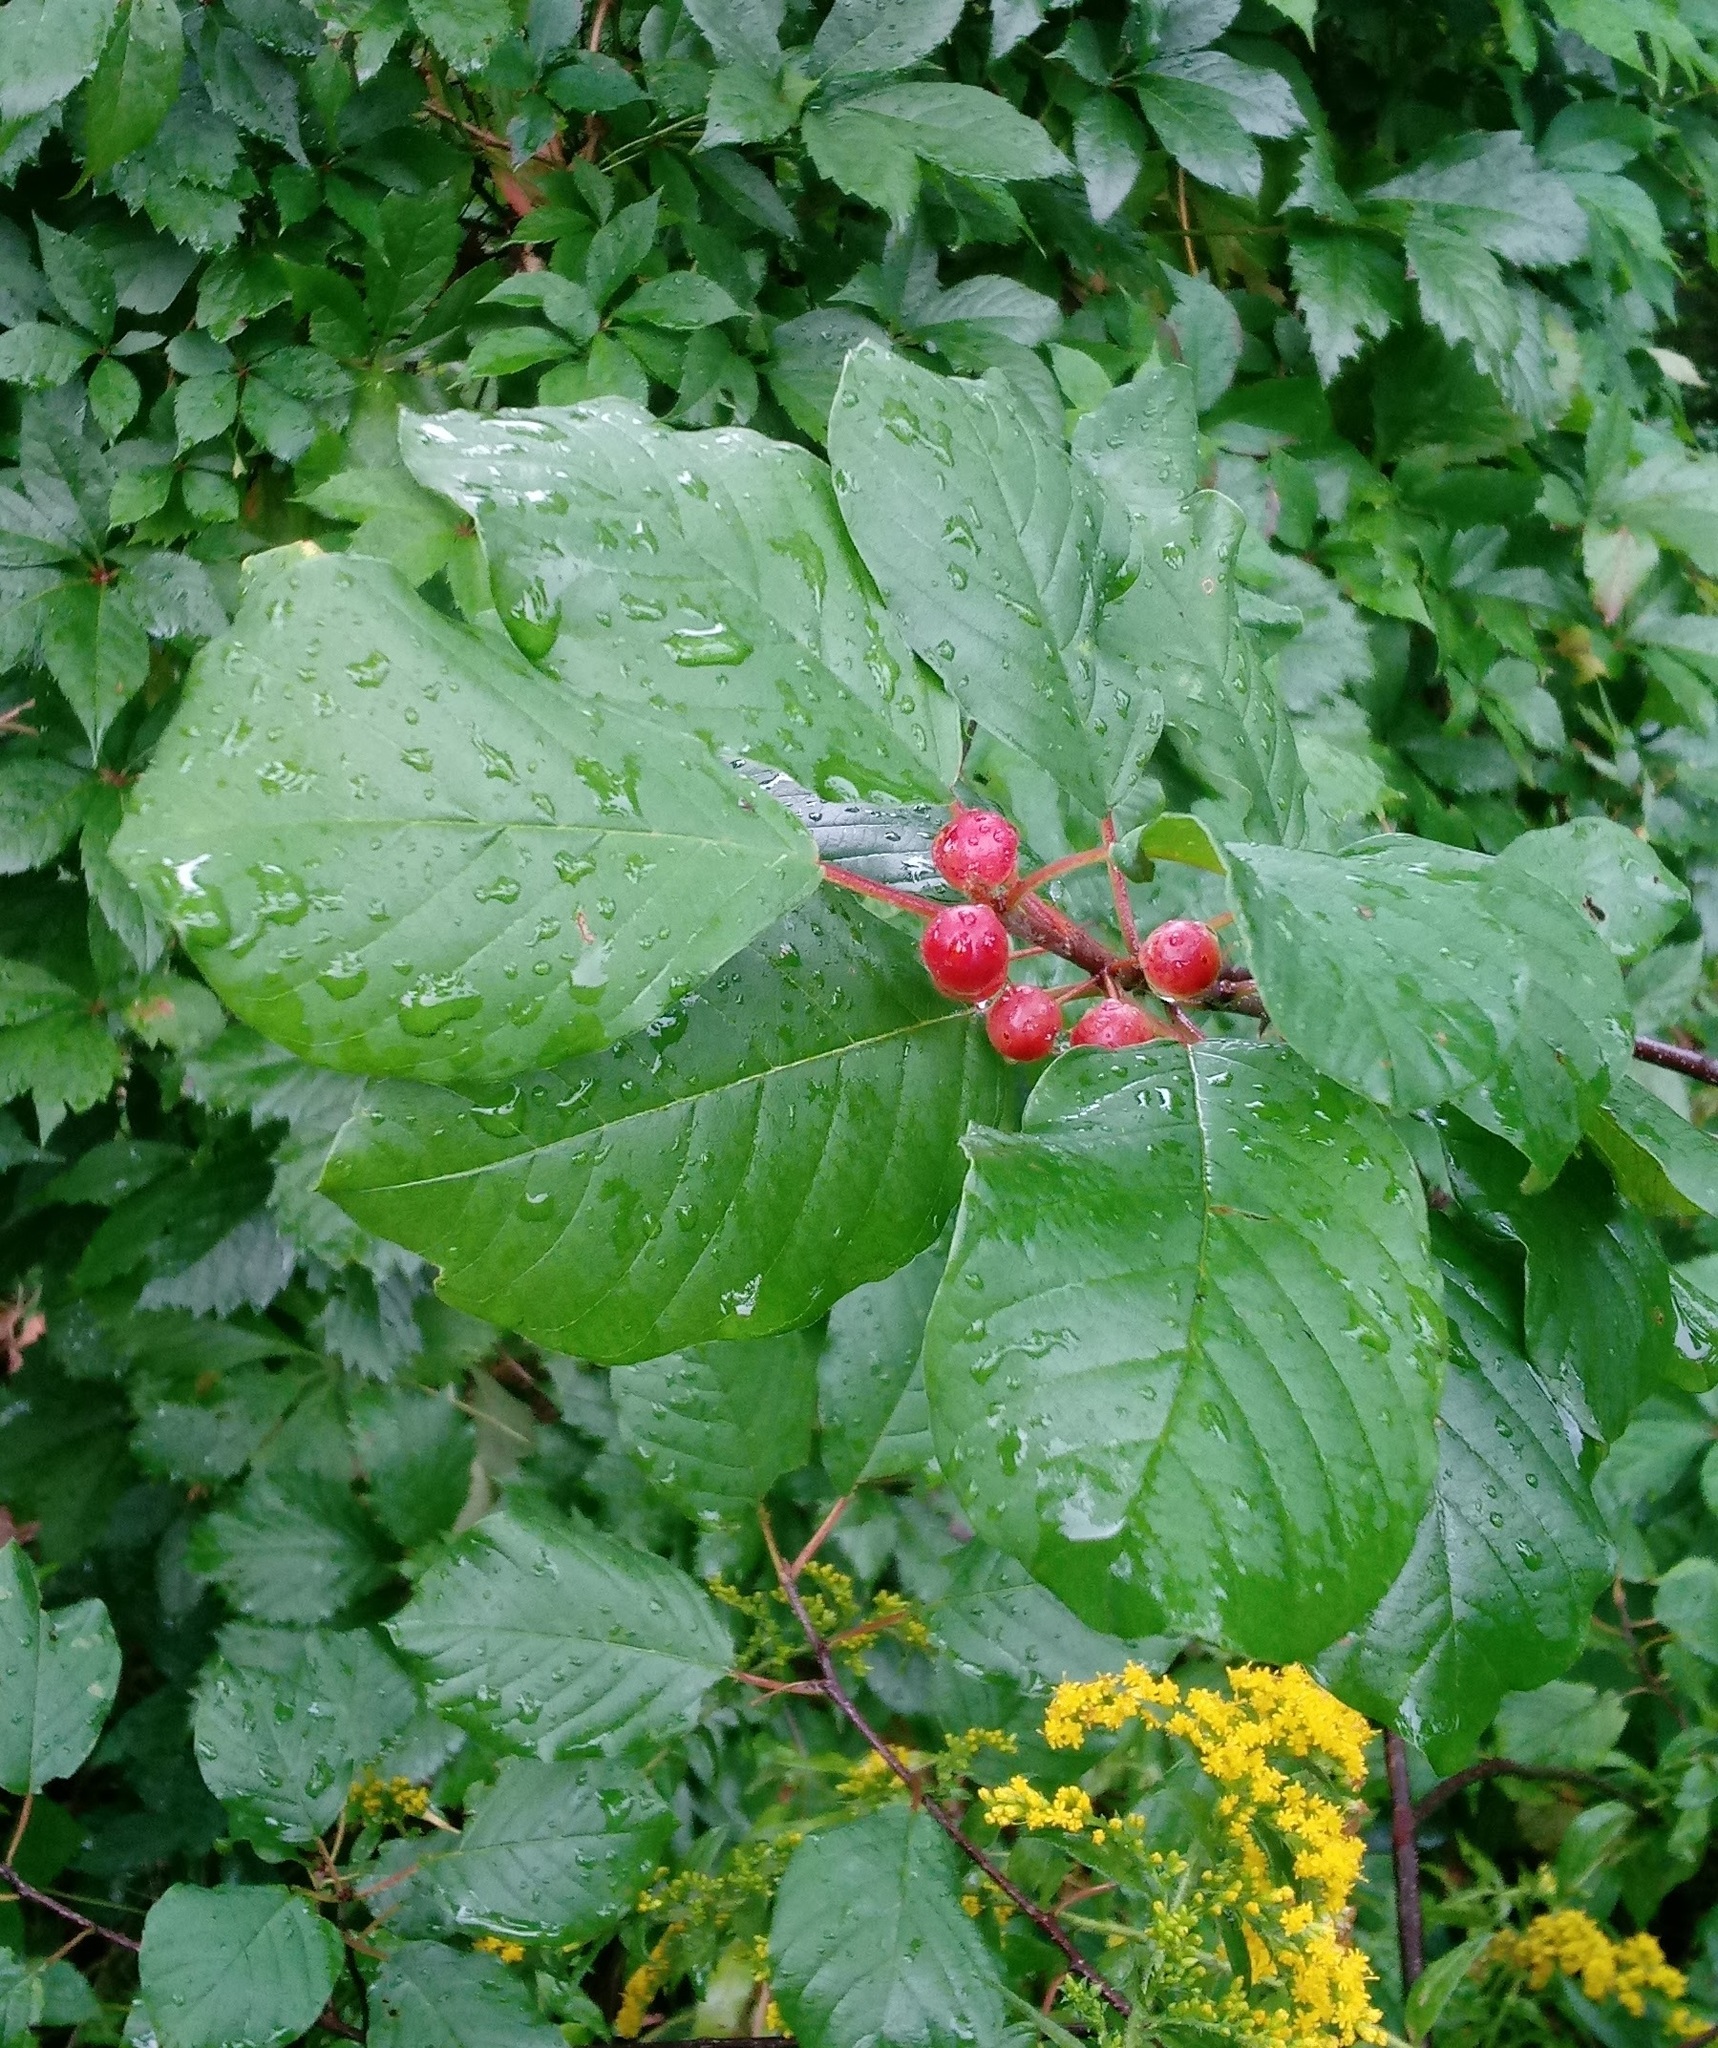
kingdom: Plantae
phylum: Tracheophyta
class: Magnoliopsida
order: Rosales
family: Rhamnaceae
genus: Frangula
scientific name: Frangula alnus
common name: Alder buckthorn
